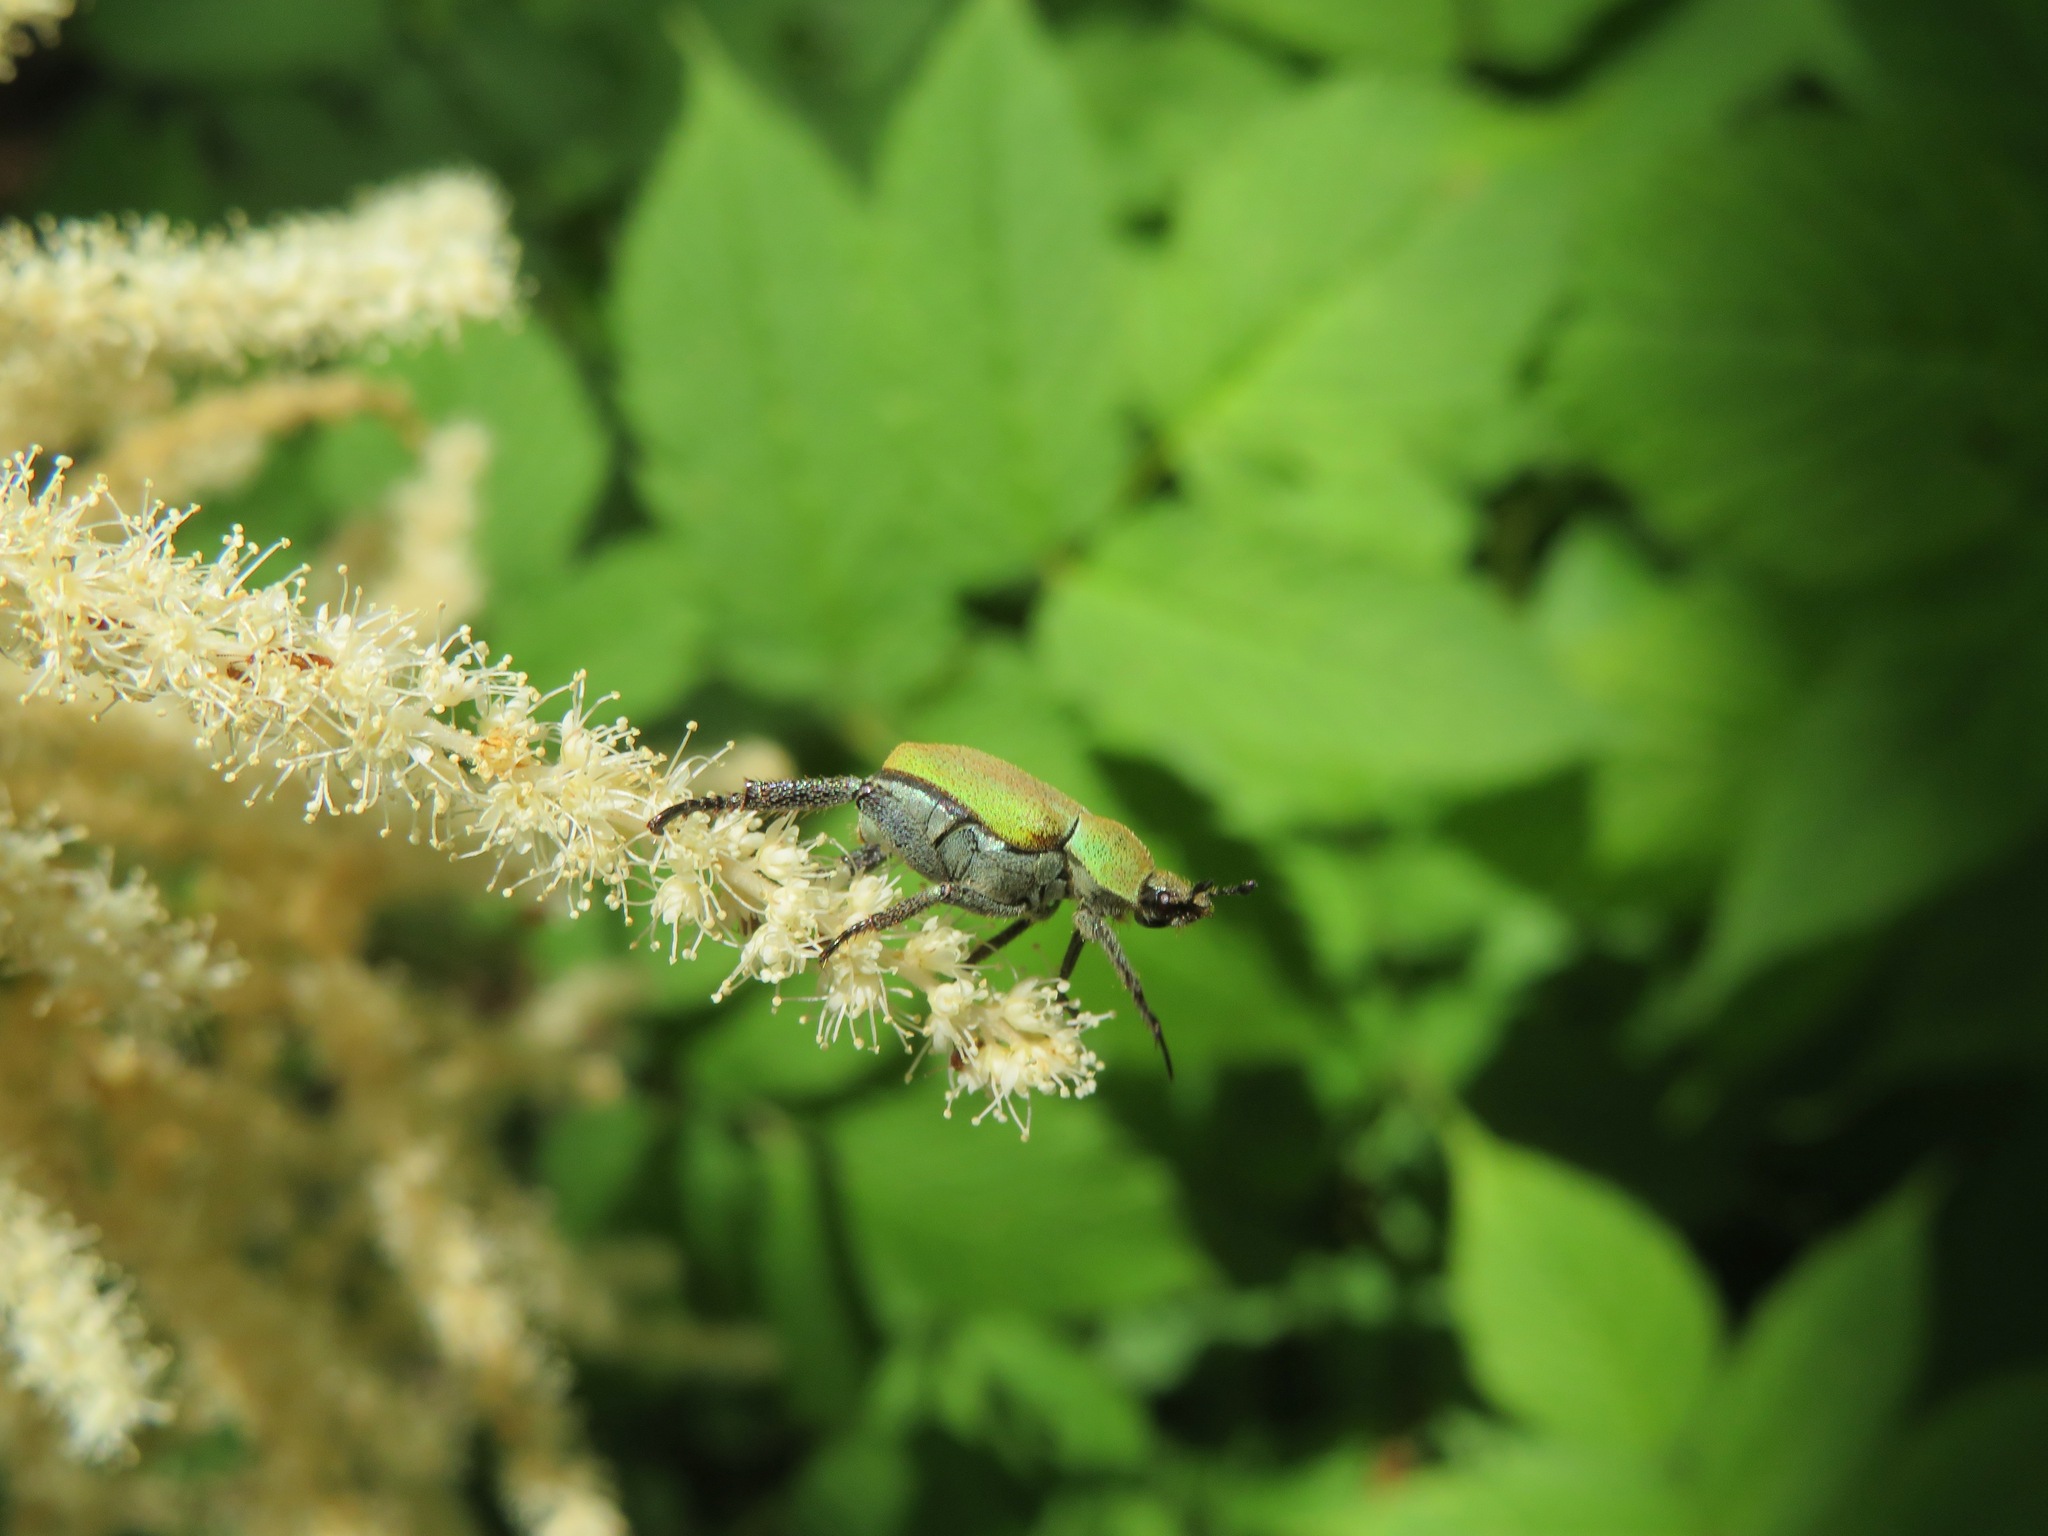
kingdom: Animalia
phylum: Arthropoda
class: Insecta
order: Coleoptera
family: Scarabaeidae
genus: Hoplia
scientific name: Hoplia argentea
